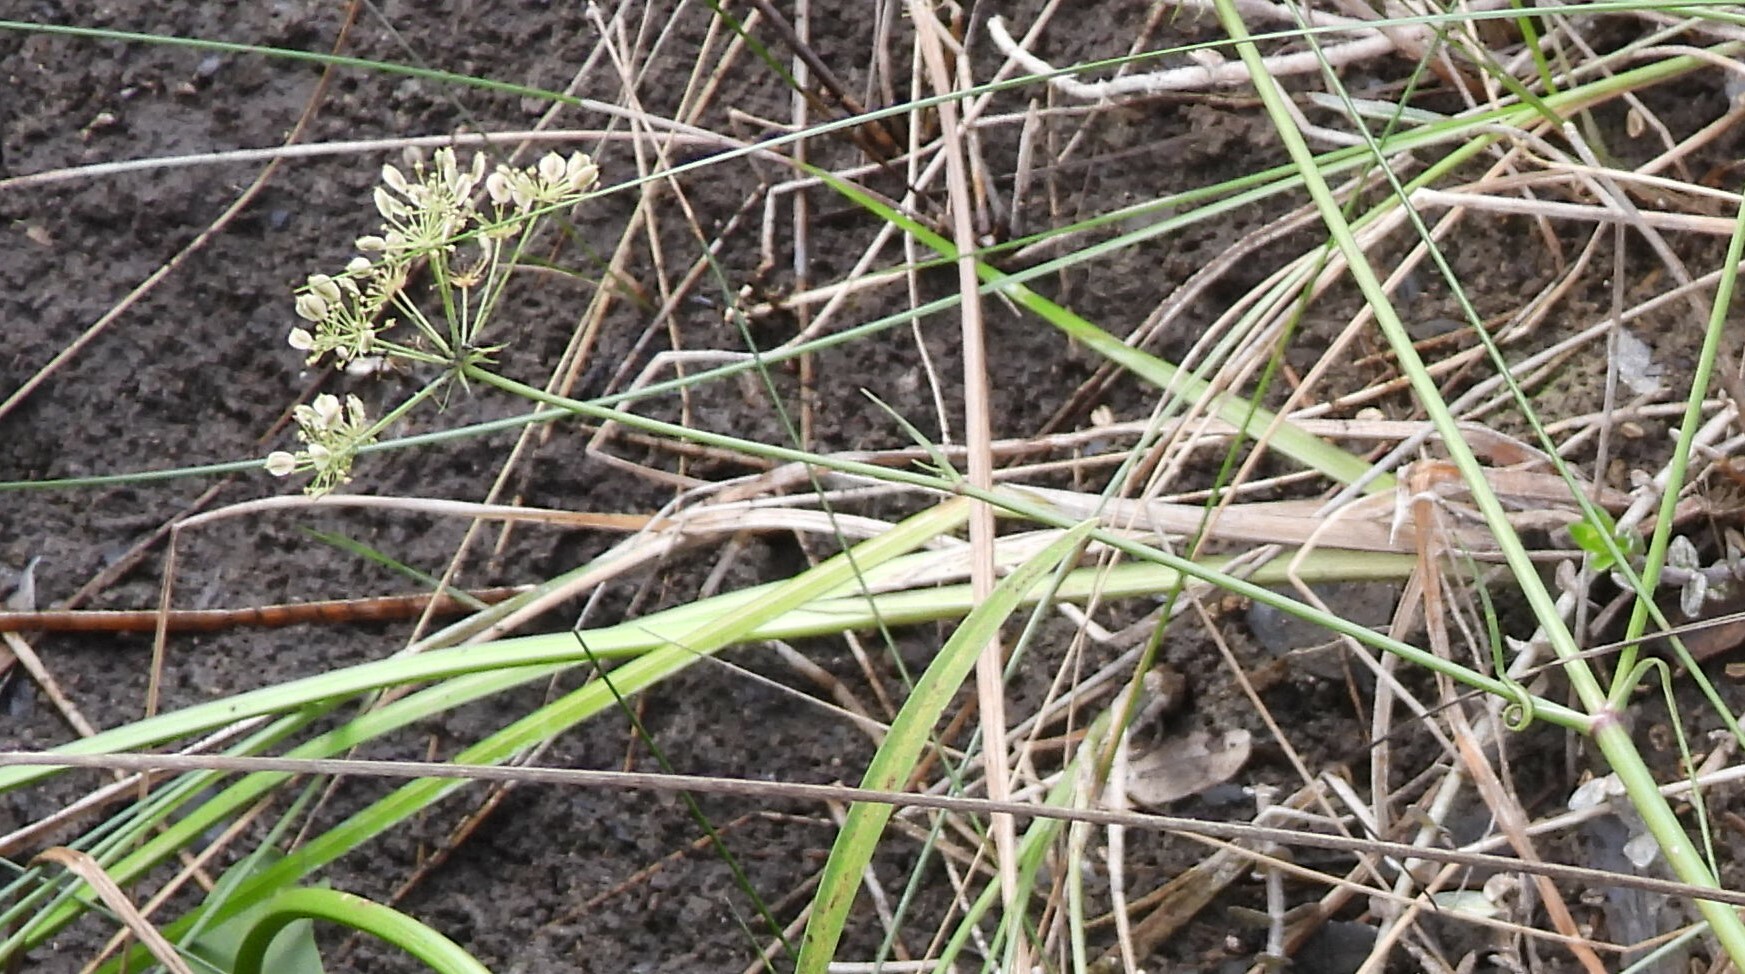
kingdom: Plantae
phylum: Tracheophyta
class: Magnoliopsida
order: Apiales
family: Apiaceae
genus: Tiedemannia
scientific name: Tiedemannia filiformis
